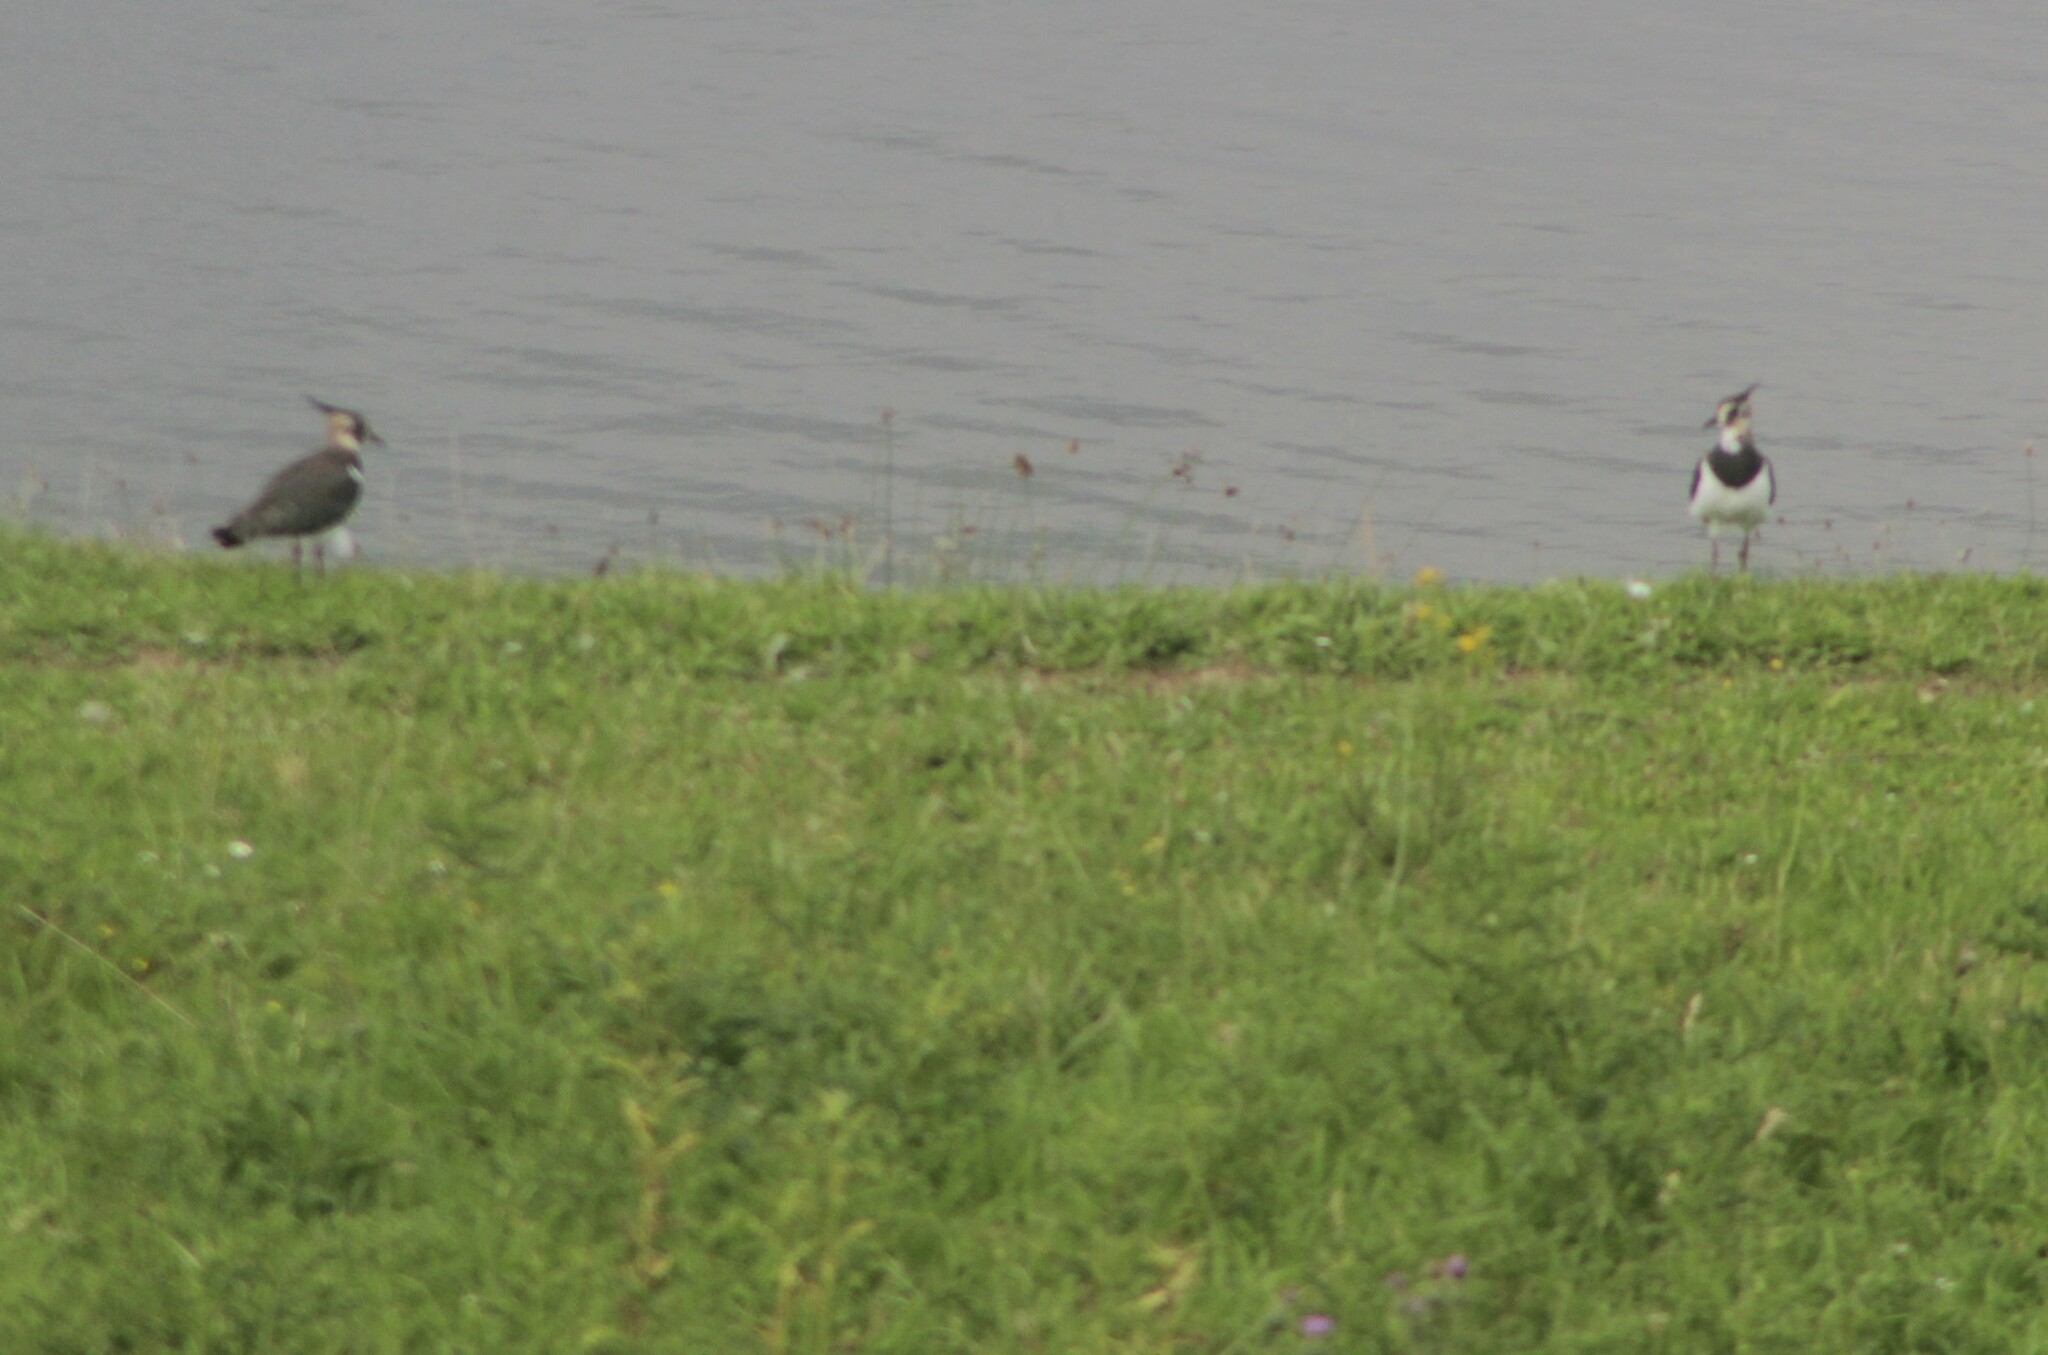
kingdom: Animalia
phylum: Chordata
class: Aves
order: Charadriiformes
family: Charadriidae
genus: Vanellus
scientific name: Vanellus vanellus
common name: Northern lapwing
